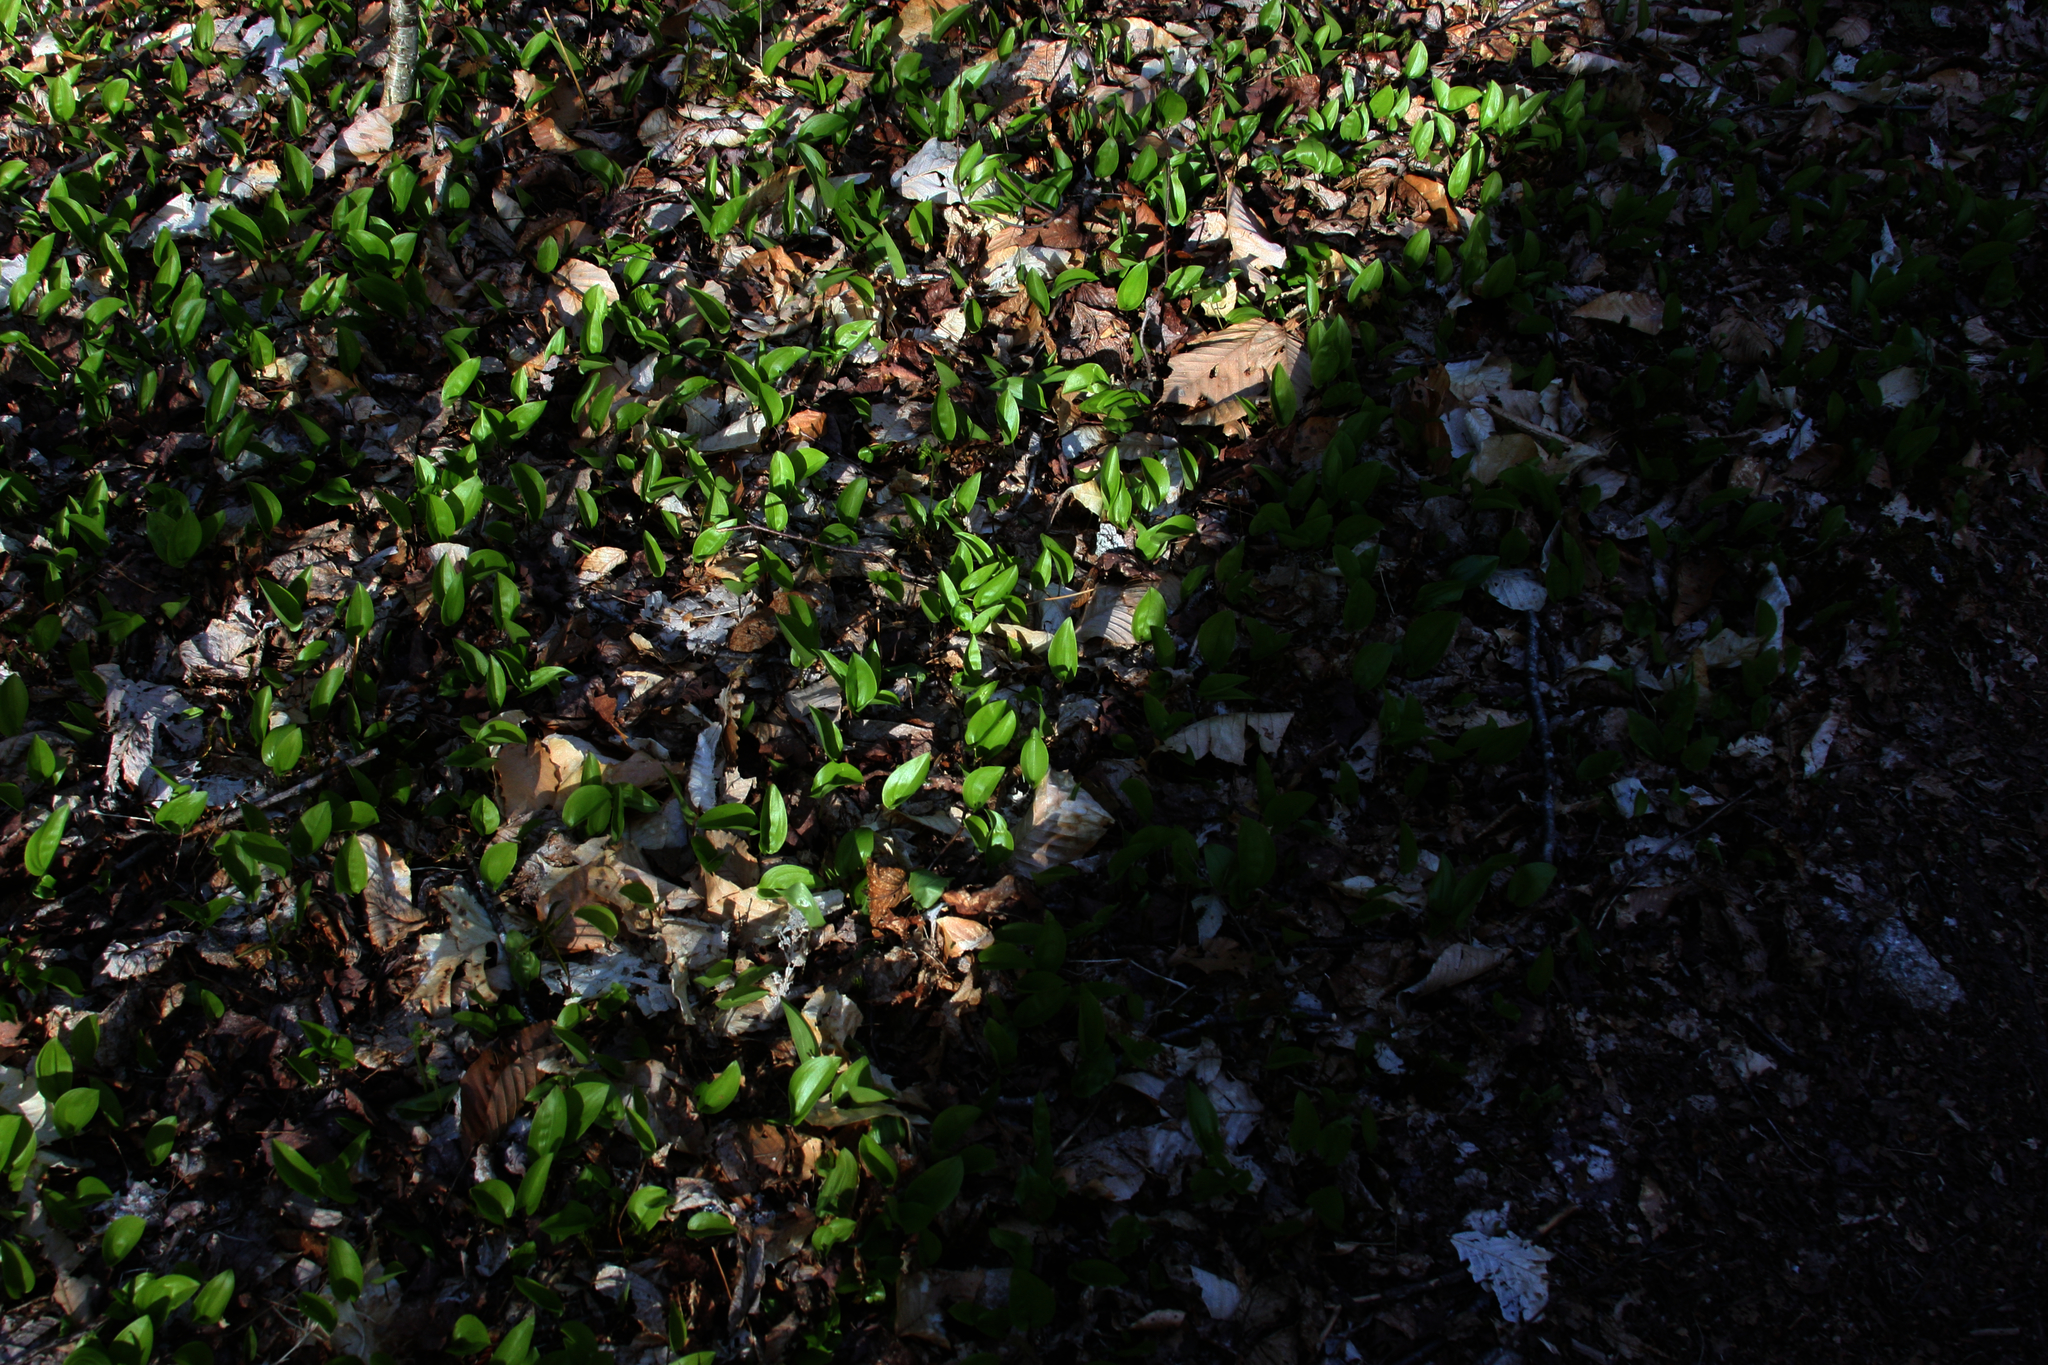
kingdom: Plantae
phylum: Tracheophyta
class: Liliopsida
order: Asparagales
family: Asparagaceae
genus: Maianthemum
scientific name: Maianthemum canadense
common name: False lily-of-the-valley
